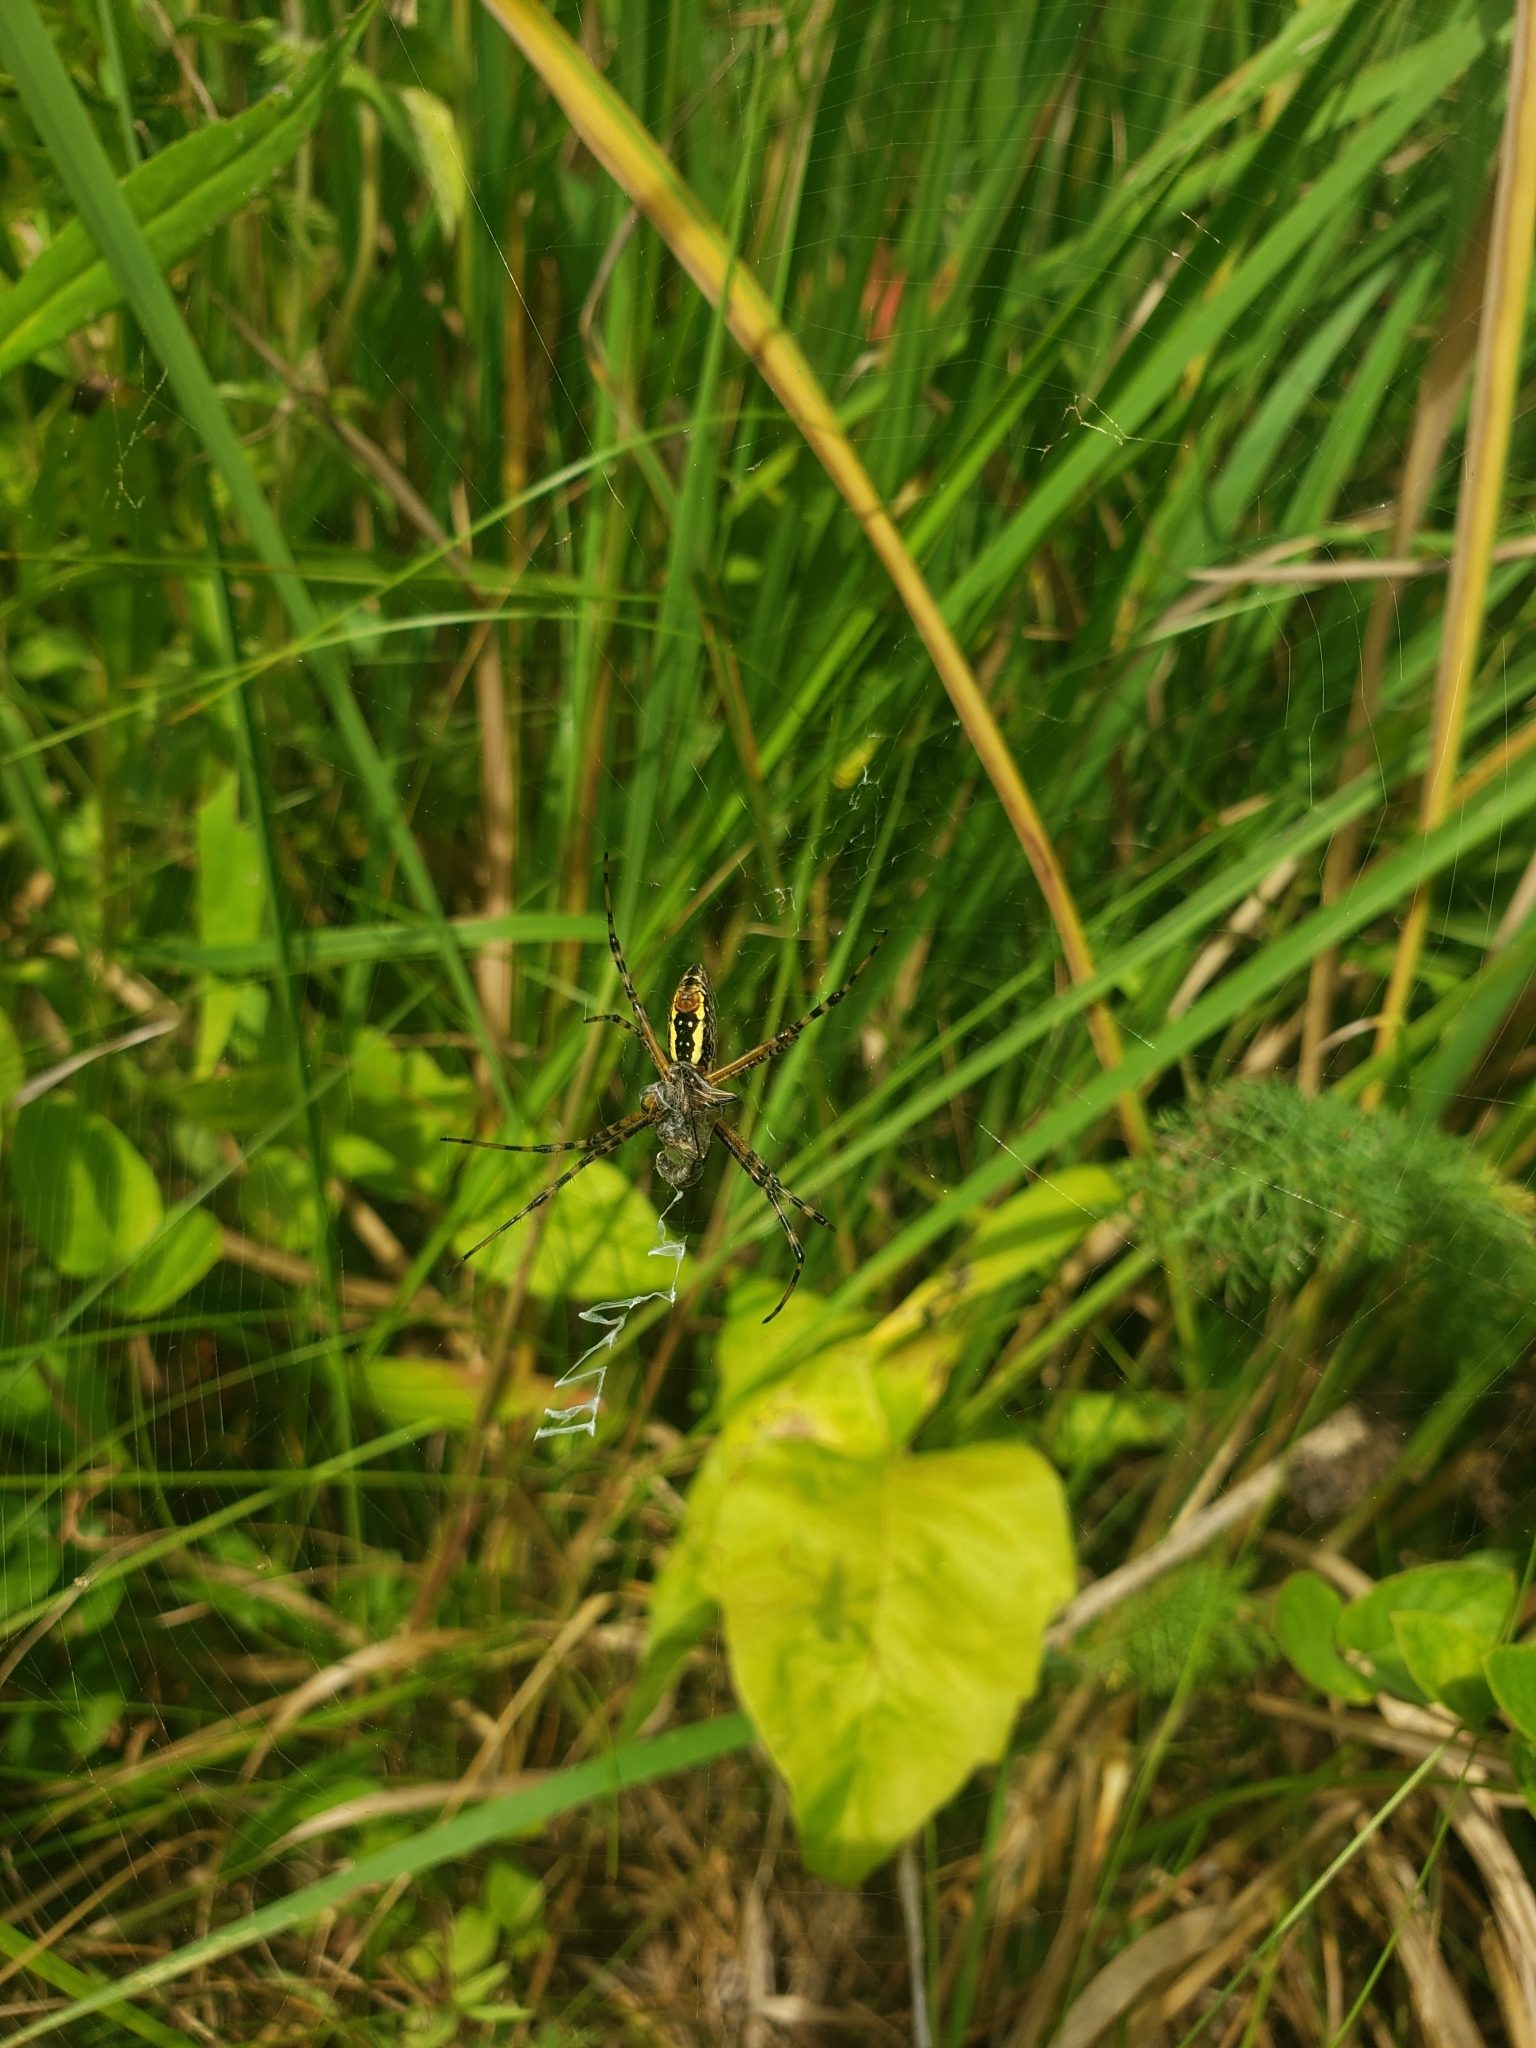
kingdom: Animalia
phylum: Arthropoda
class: Arachnida
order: Araneae
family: Araneidae
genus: Argiope
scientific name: Argiope trifasciata
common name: Banded garden spider
